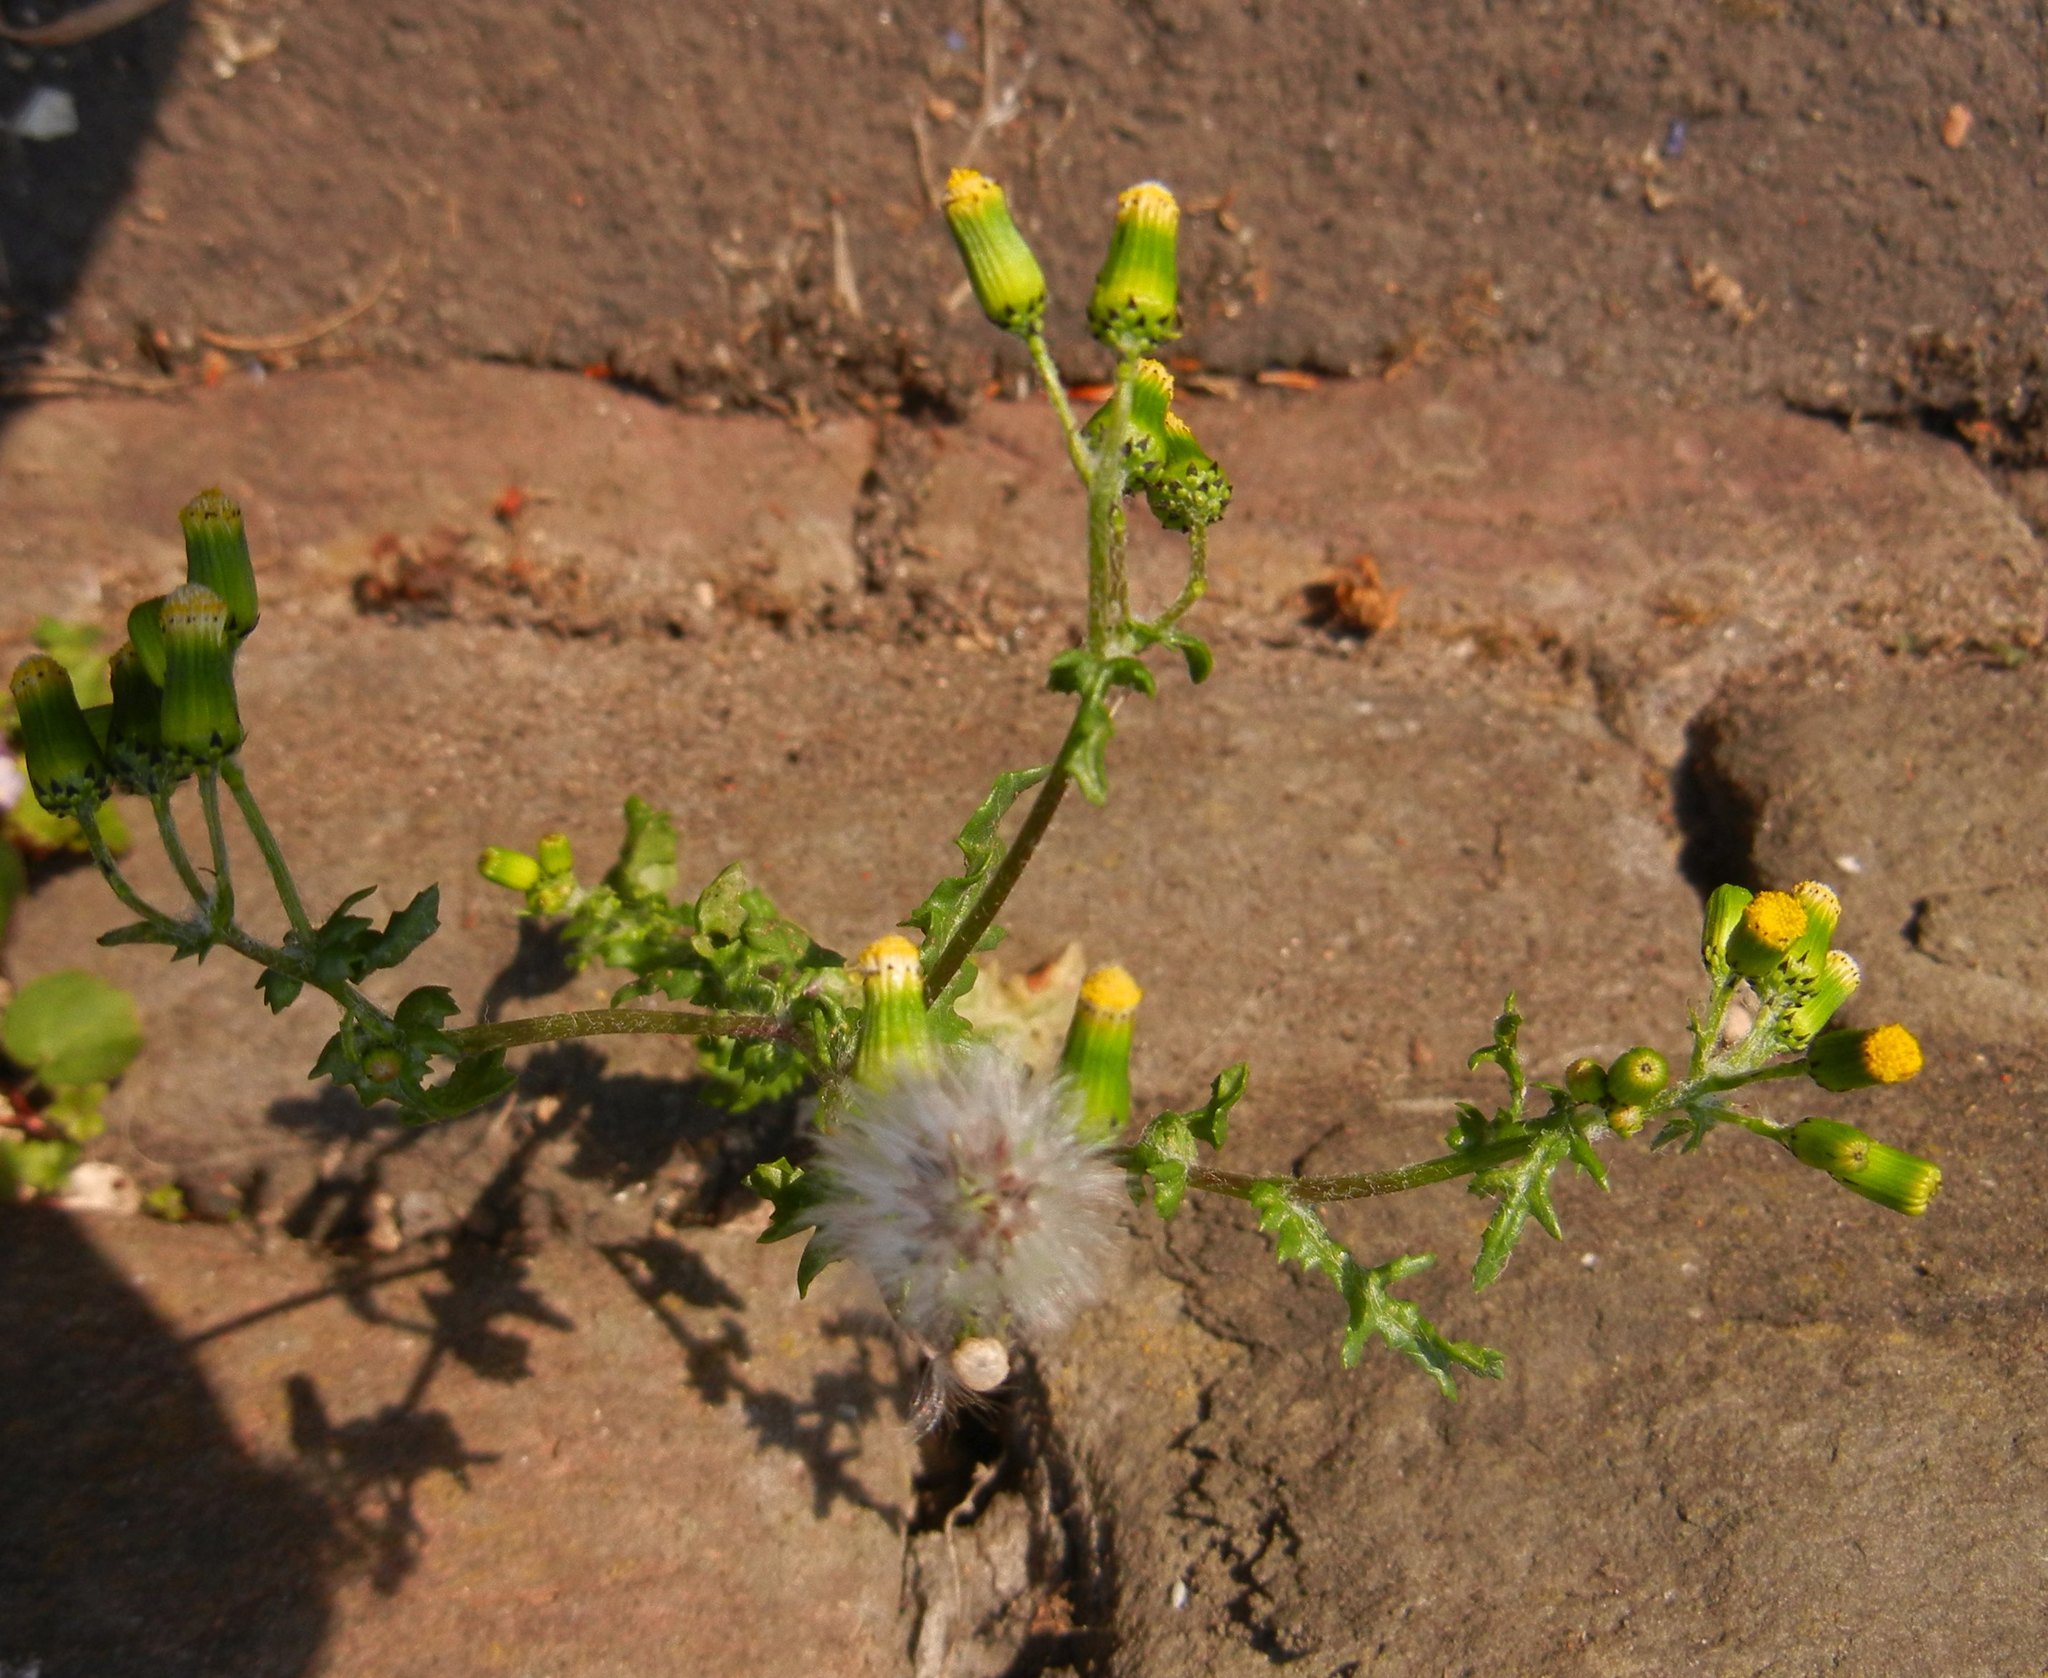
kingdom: Plantae
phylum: Tracheophyta
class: Magnoliopsida
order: Asterales
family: Asteraceae
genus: Senecio
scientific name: Senecio vulgaris
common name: Old-man-in-the-spring
